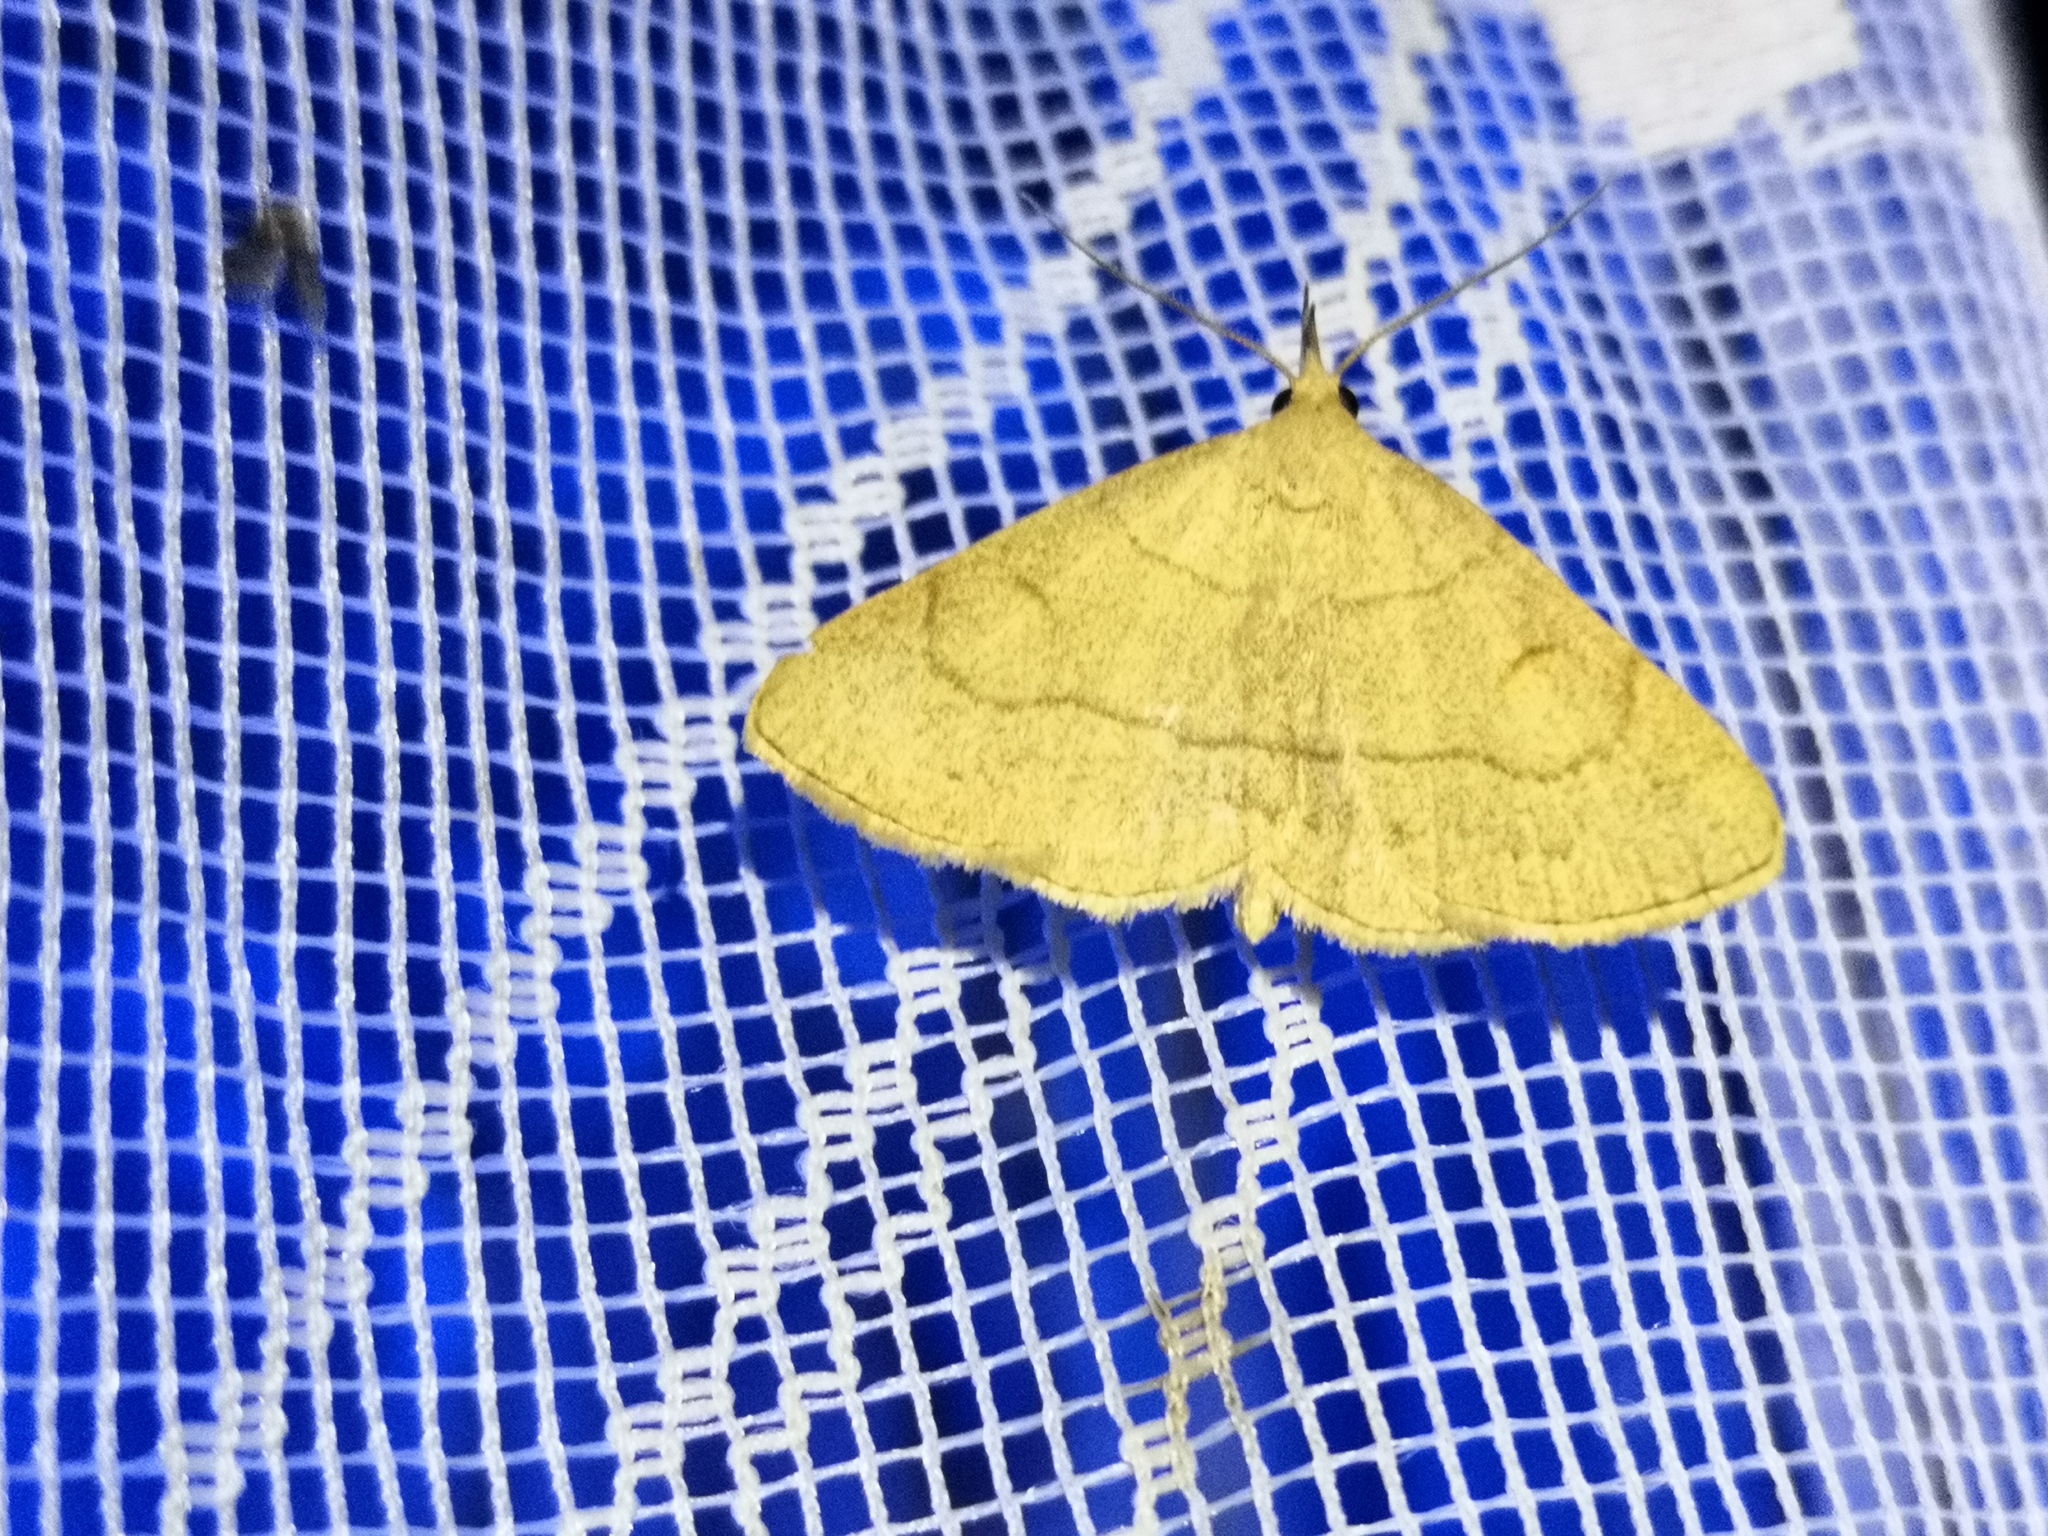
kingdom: Animalia
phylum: Arthropoda
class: Insecta
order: Lepidoptera
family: Erebidae
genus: Paracolax
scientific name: Paracolax tristalis
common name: Clay fan-foot
